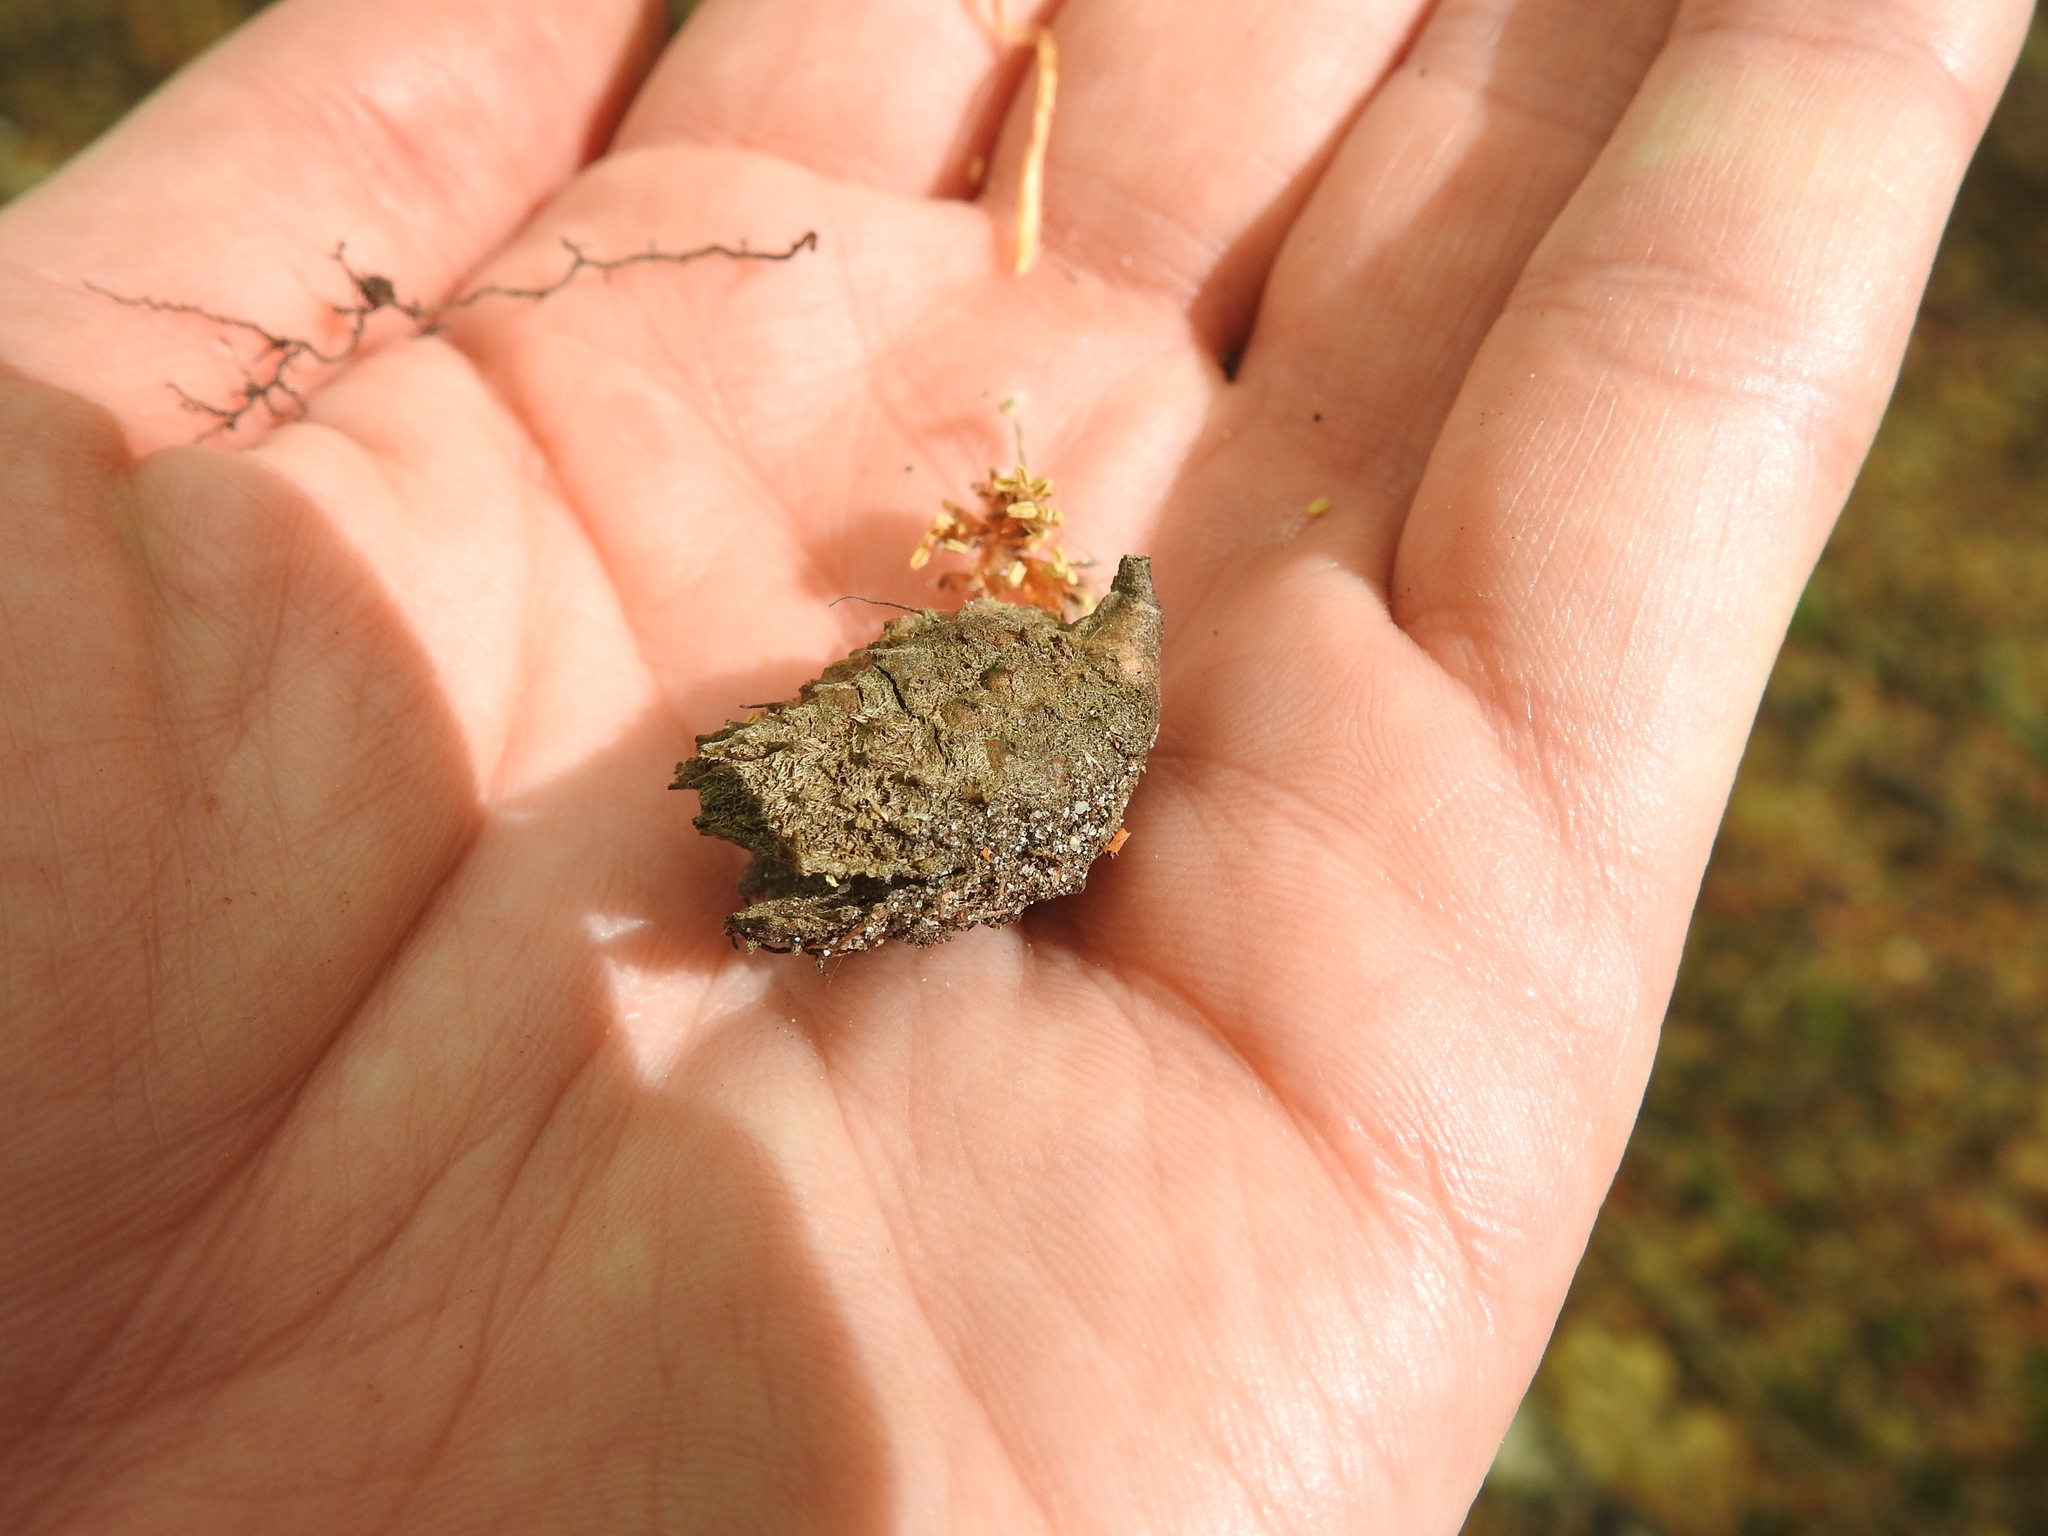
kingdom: Plantae
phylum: Tracheophyta
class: Magnoliopsida
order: Fagales
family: Fagaceae
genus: Fagus
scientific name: Fagus sylvatica
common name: Beech
